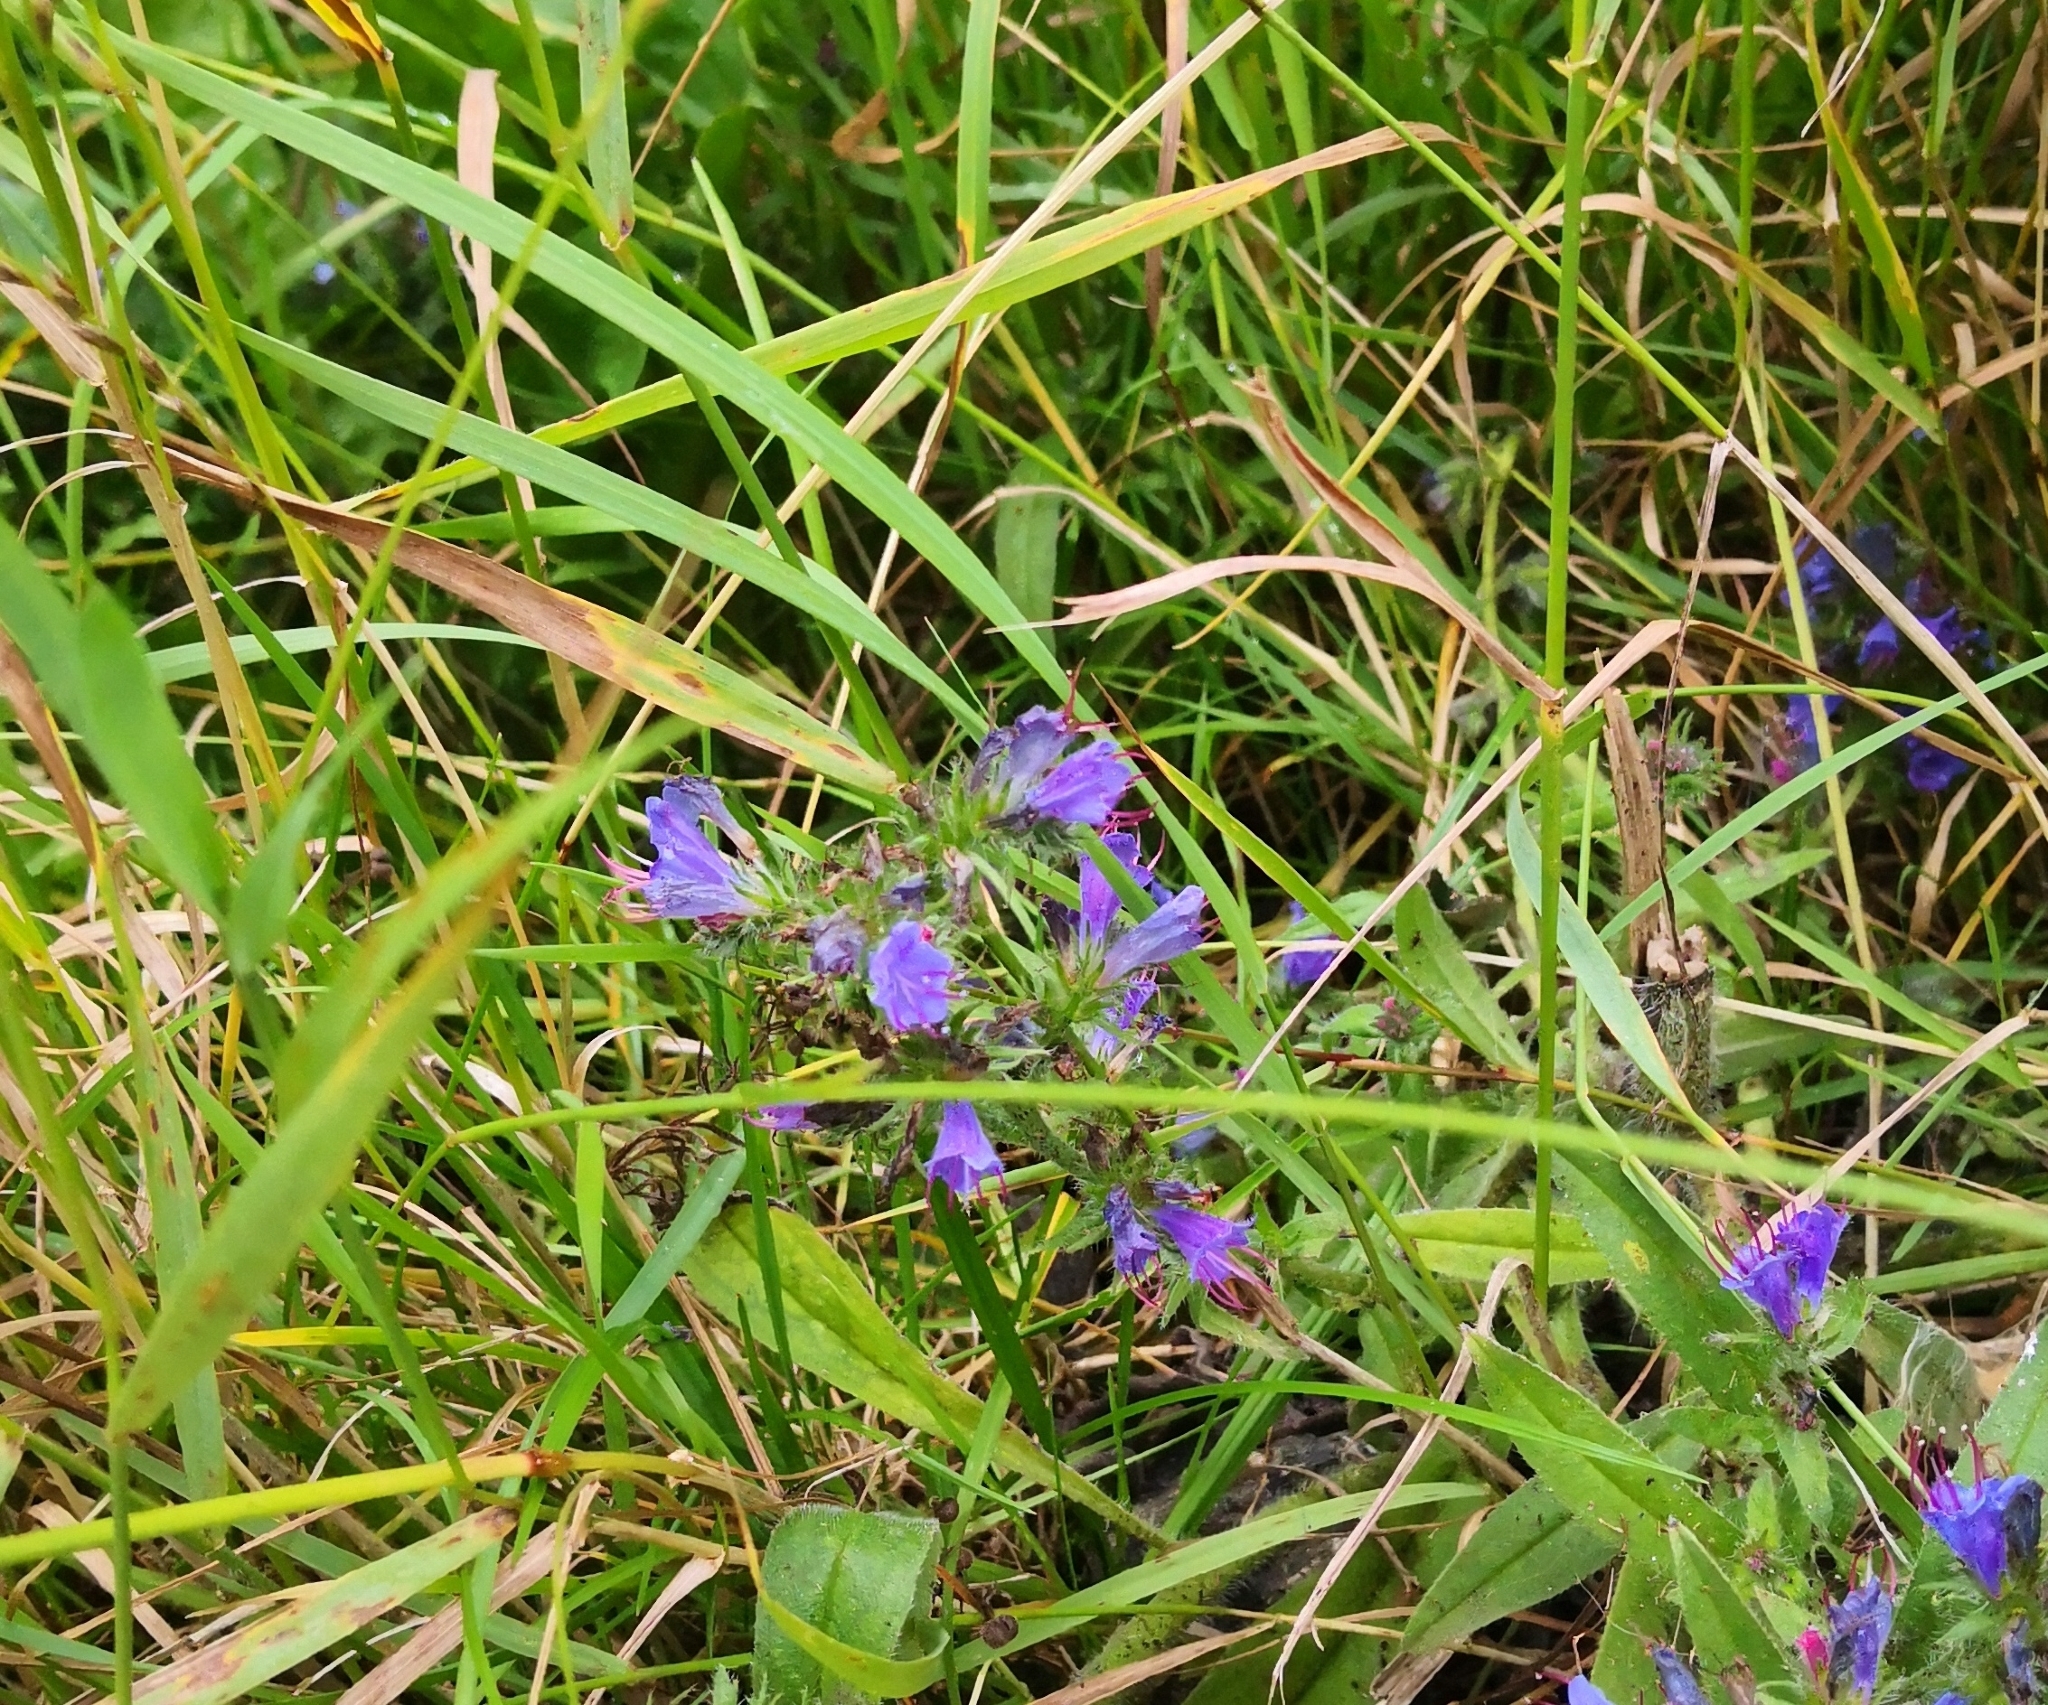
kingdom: Plantae
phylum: Tracheophyta
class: Magnoliopsida
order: Boraginales
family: Boraginaceae
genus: Echium
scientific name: Echium vulgare
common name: Common viper's bugloss
